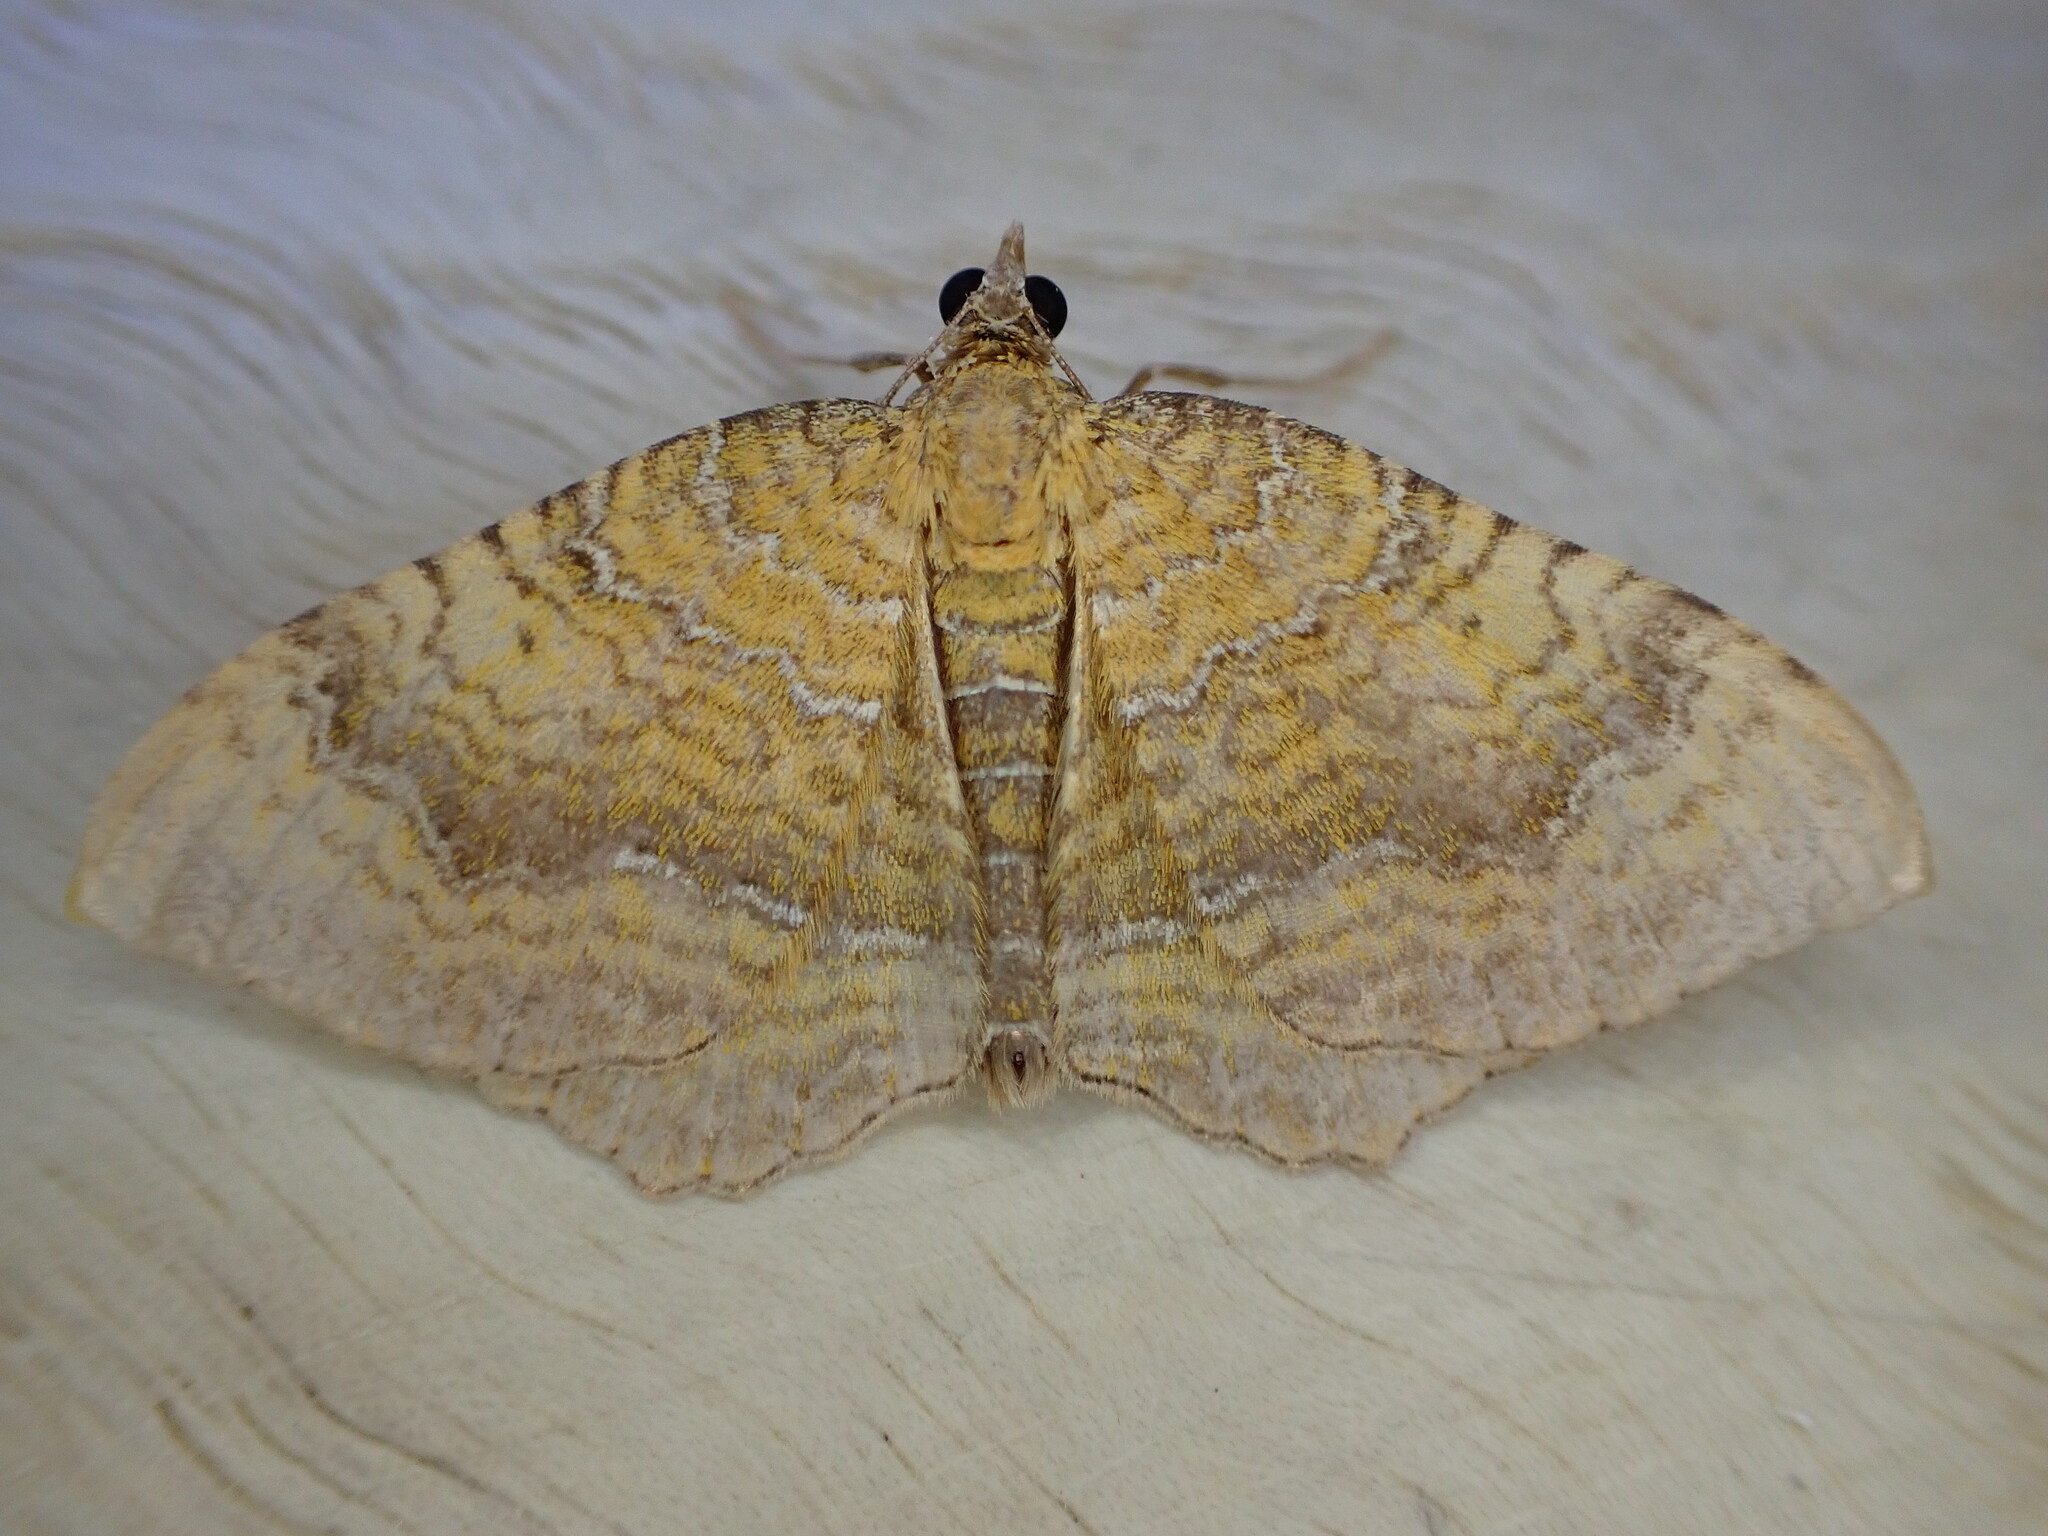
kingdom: Animalia
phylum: Arthropoda
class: Insecta
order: Lepidoptera
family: Geometridae
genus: Camptogramma
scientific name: Camptogramma bilineata
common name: Yellow shell
